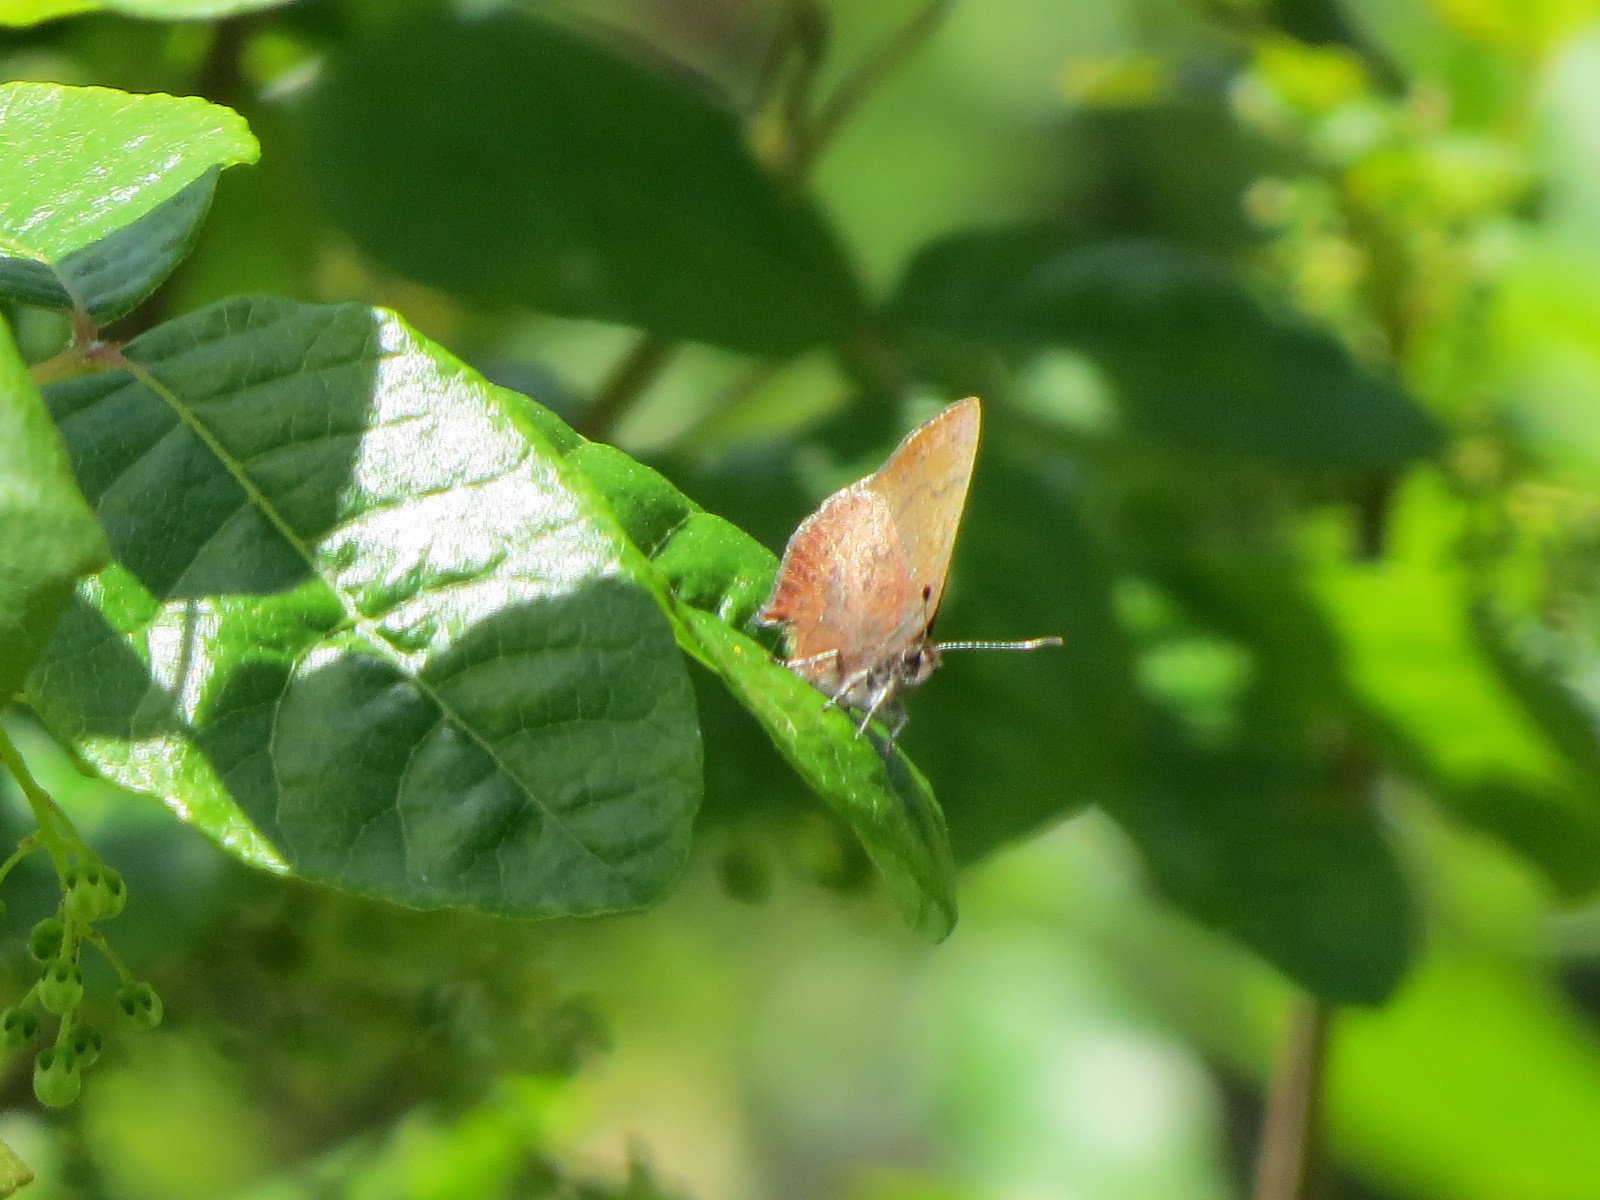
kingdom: Animalia
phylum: Arthropoda
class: Insecta
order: Lepidoptera
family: Lycaenidae
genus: Incisalia
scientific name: Incisalia irioides
